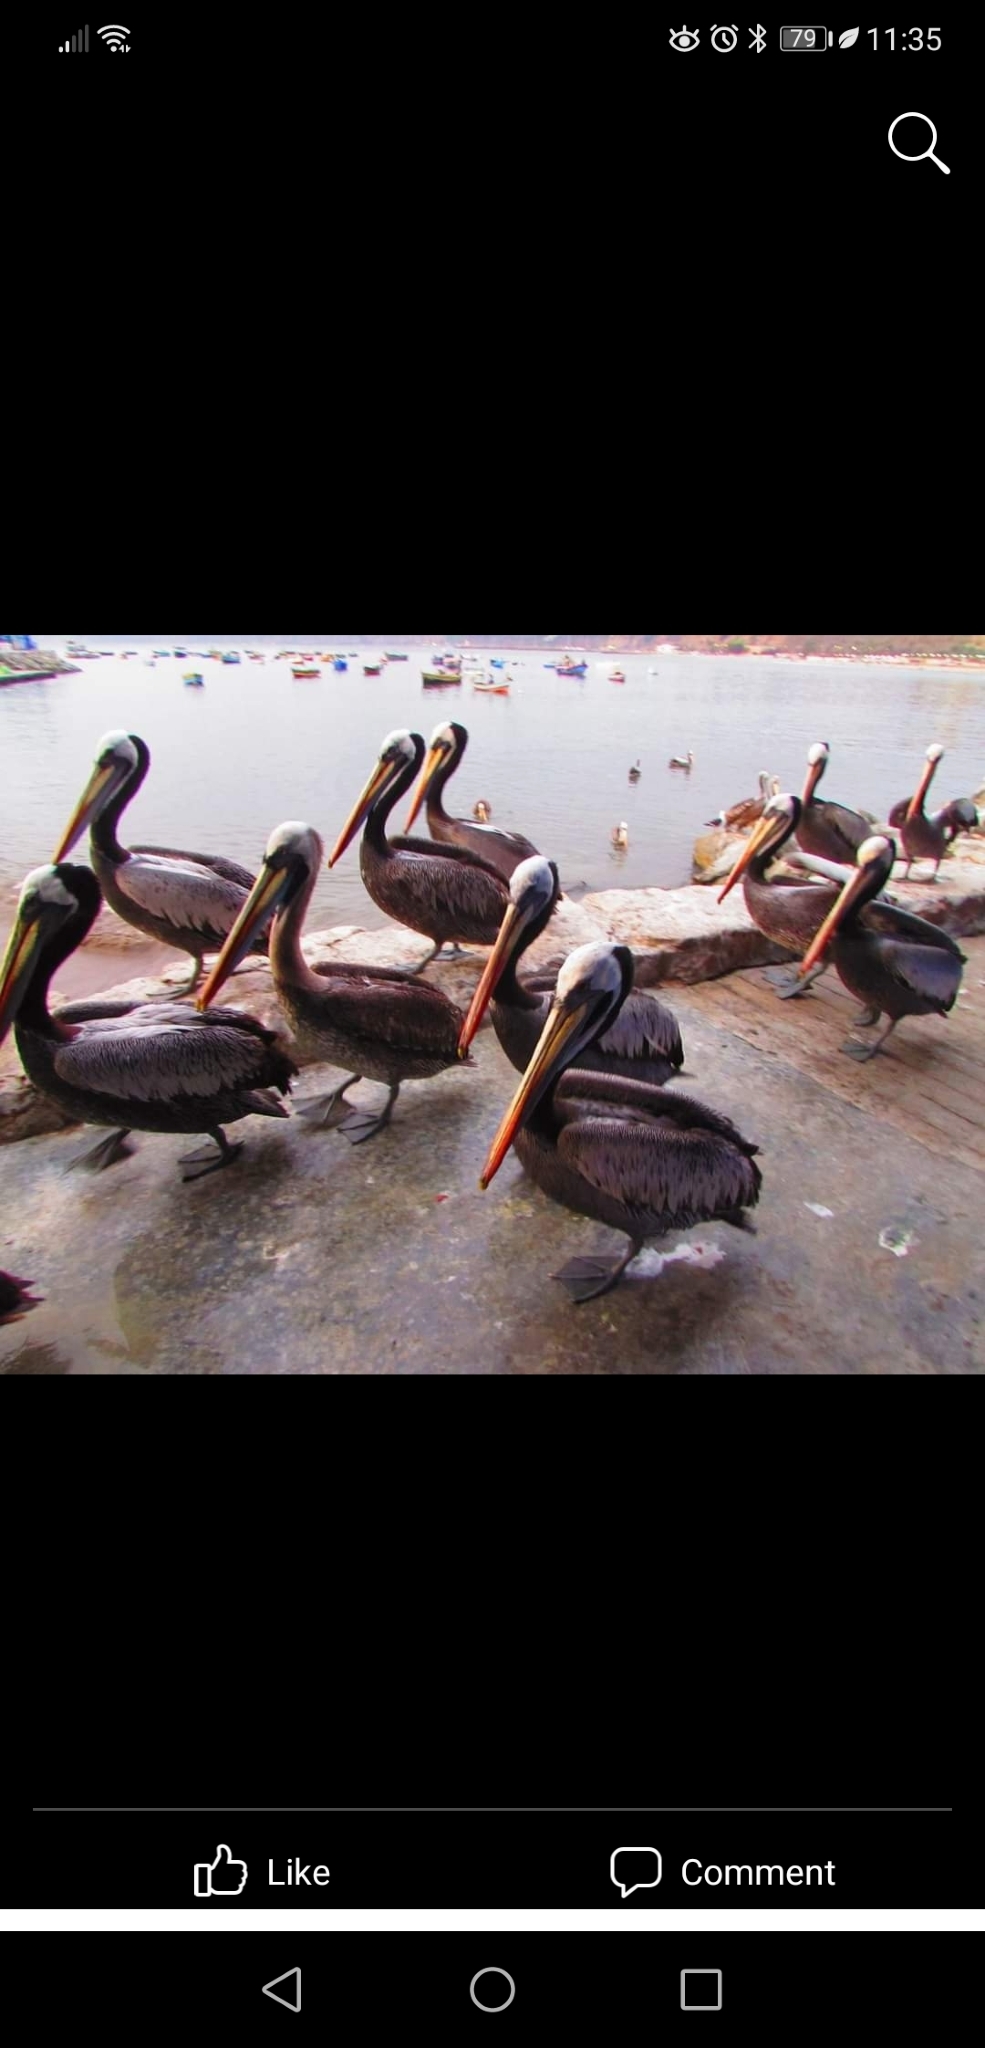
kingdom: Animalia
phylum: Chordata
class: Aves
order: Pelecaniformes
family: Pelecanidae
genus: Pelecanus
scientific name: Pelecanus thagus
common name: Peruvian pelican
